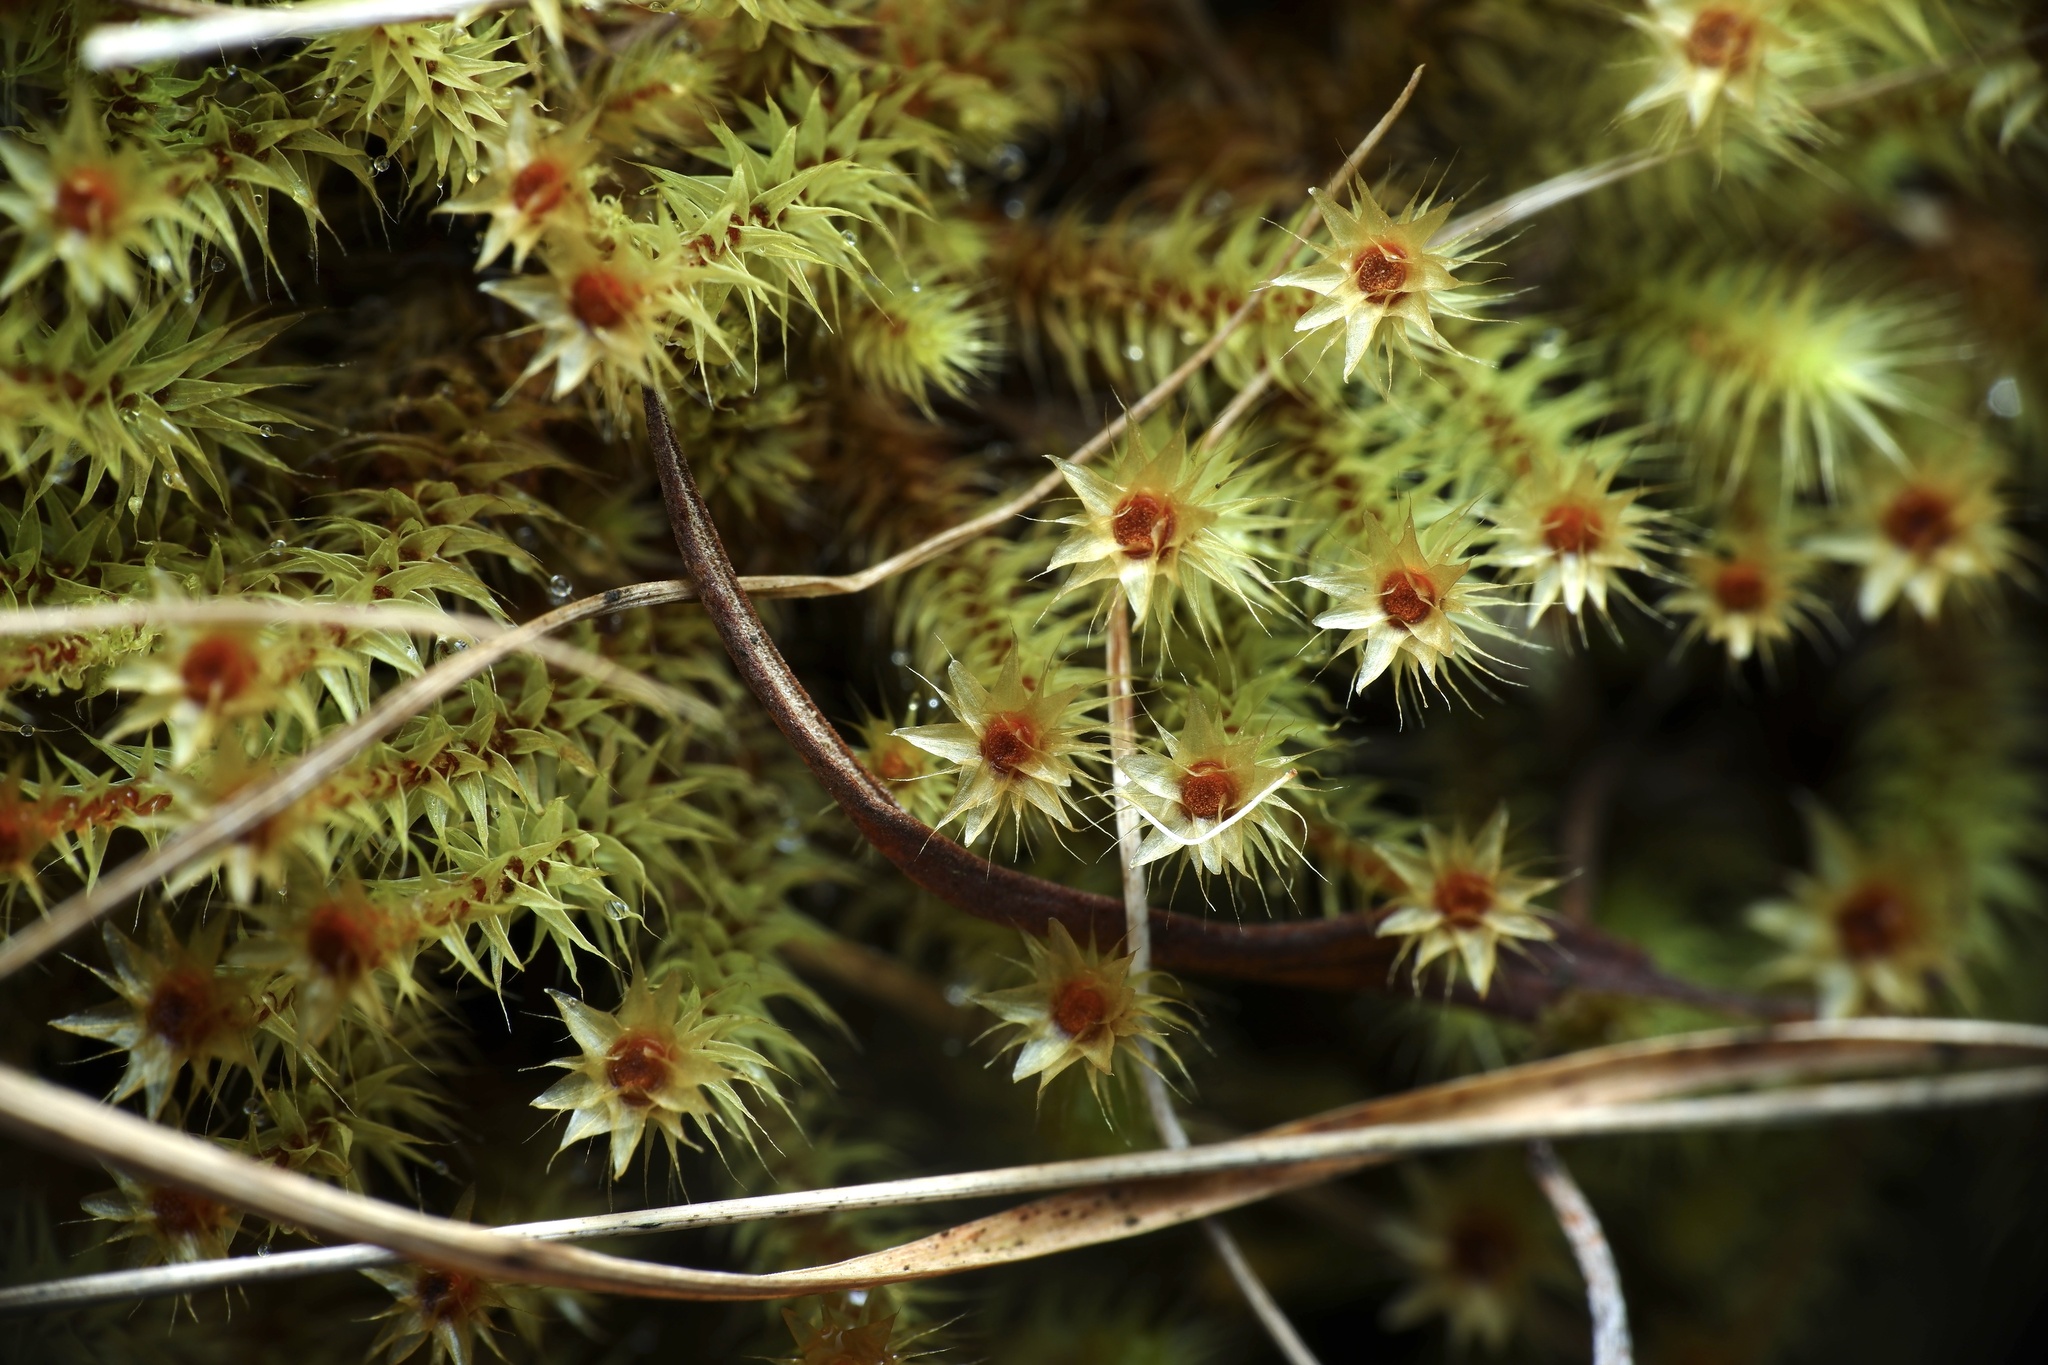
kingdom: Plantae
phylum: Bryophyta
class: Bryopsida
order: Bartramiales
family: Bartramiaceae
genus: Breutelia
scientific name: Breutelia affinis
